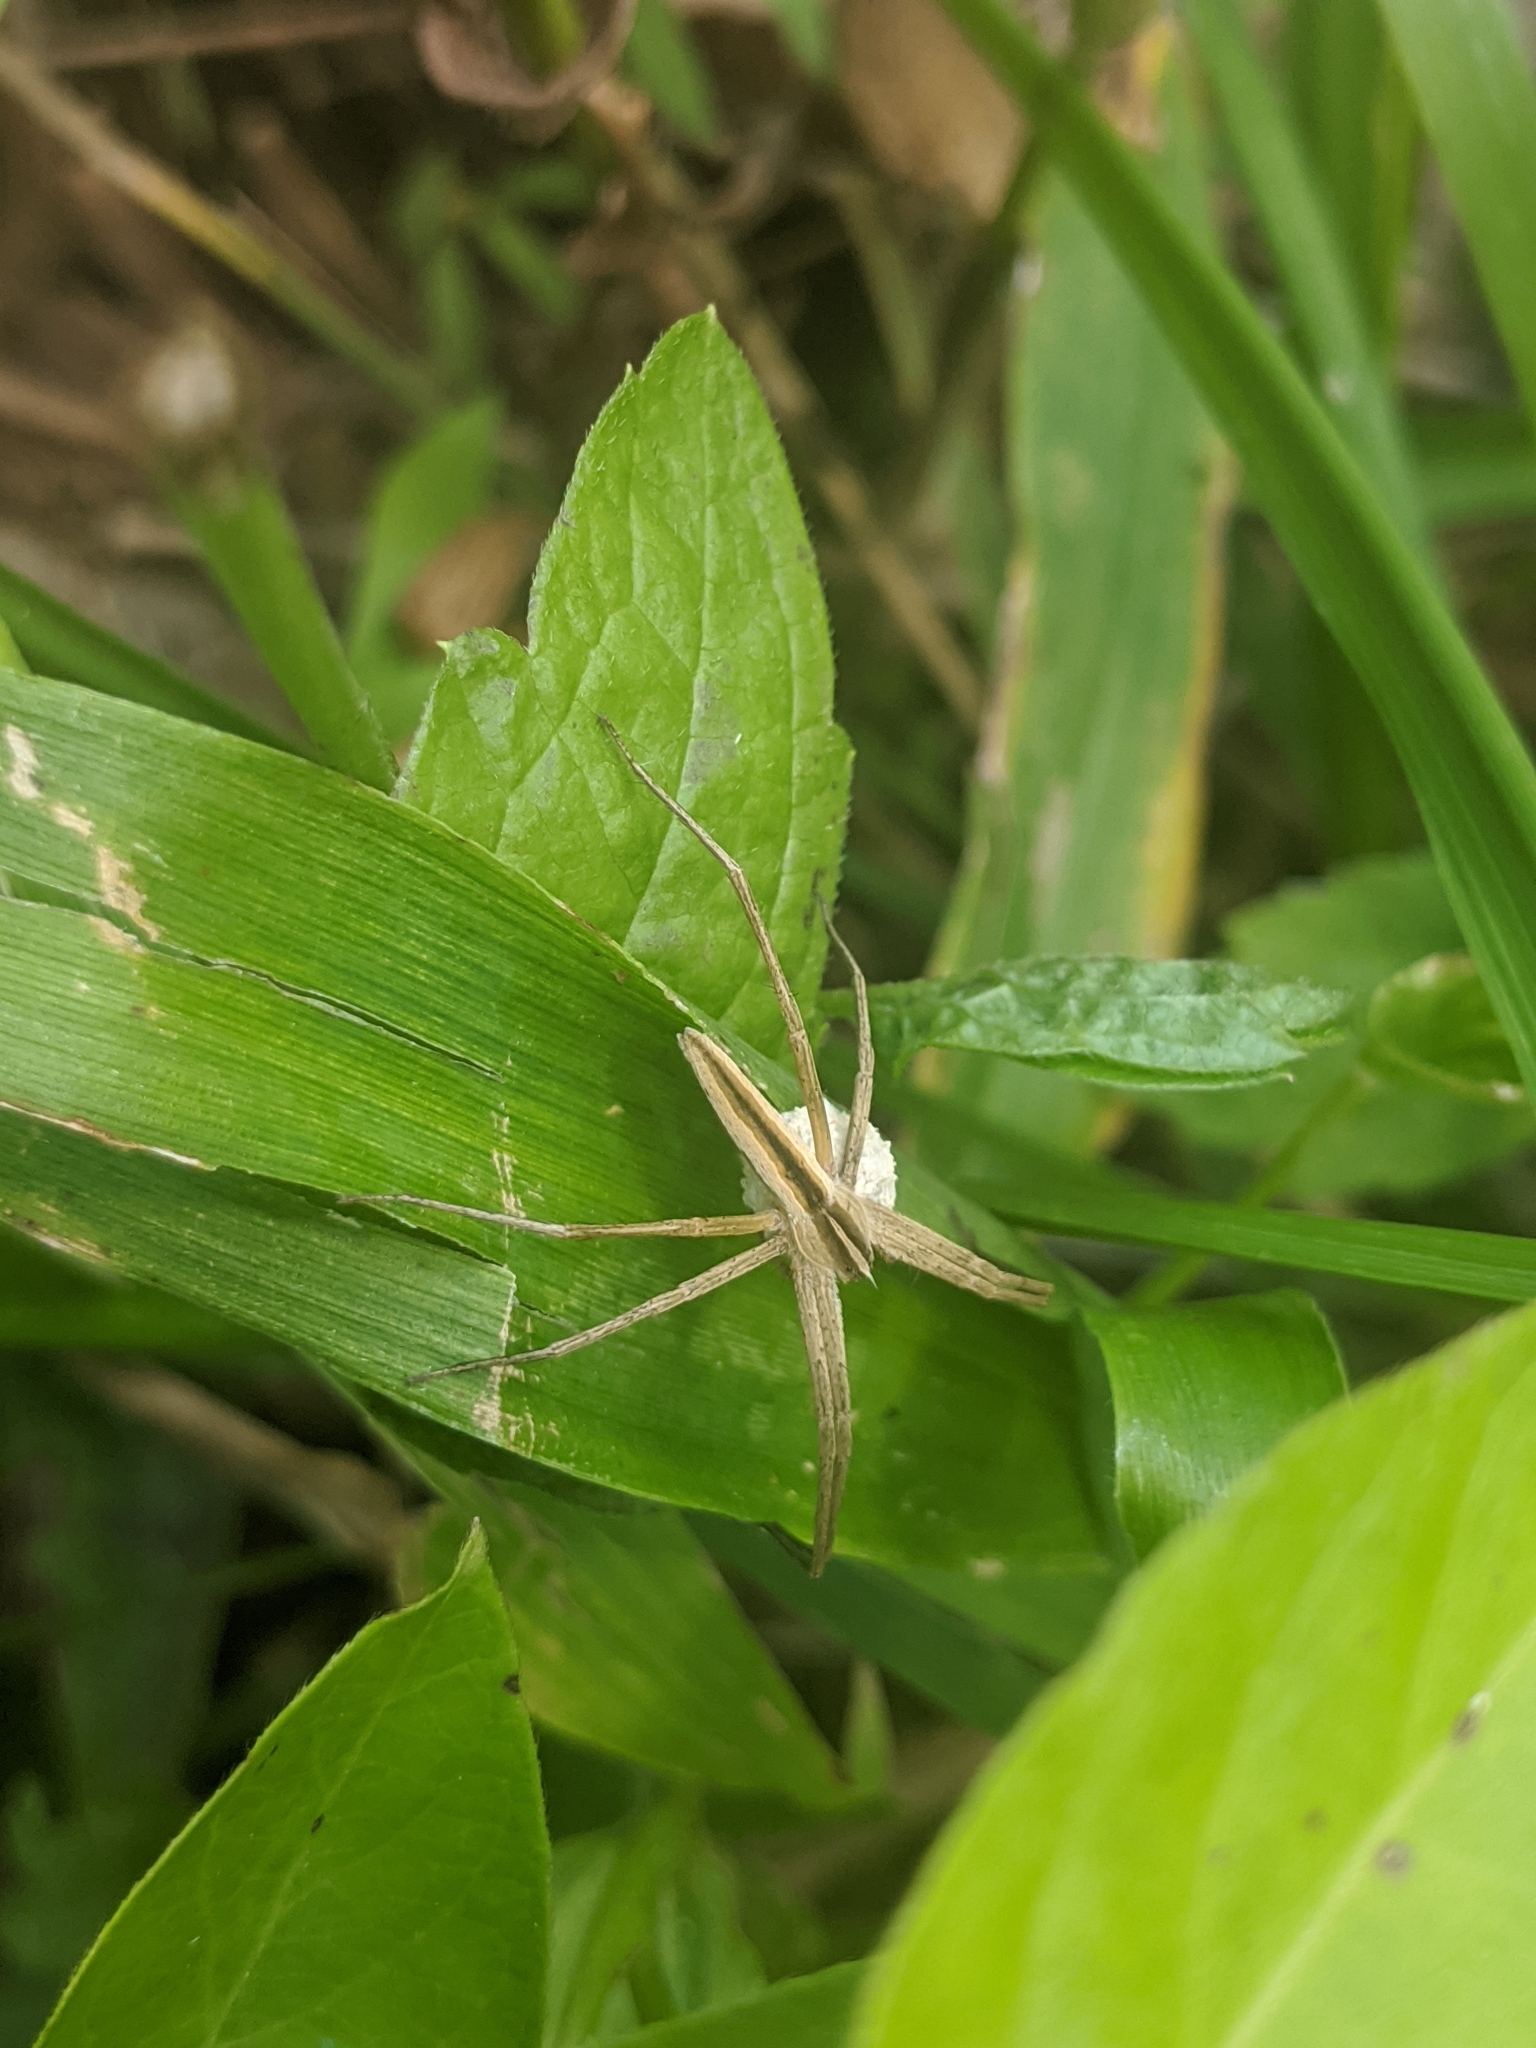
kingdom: Animalia
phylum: Arthropoda
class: Arachnida
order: Araneae
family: Pisauridae
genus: Pisaurina
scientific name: Pisaurina dubia
